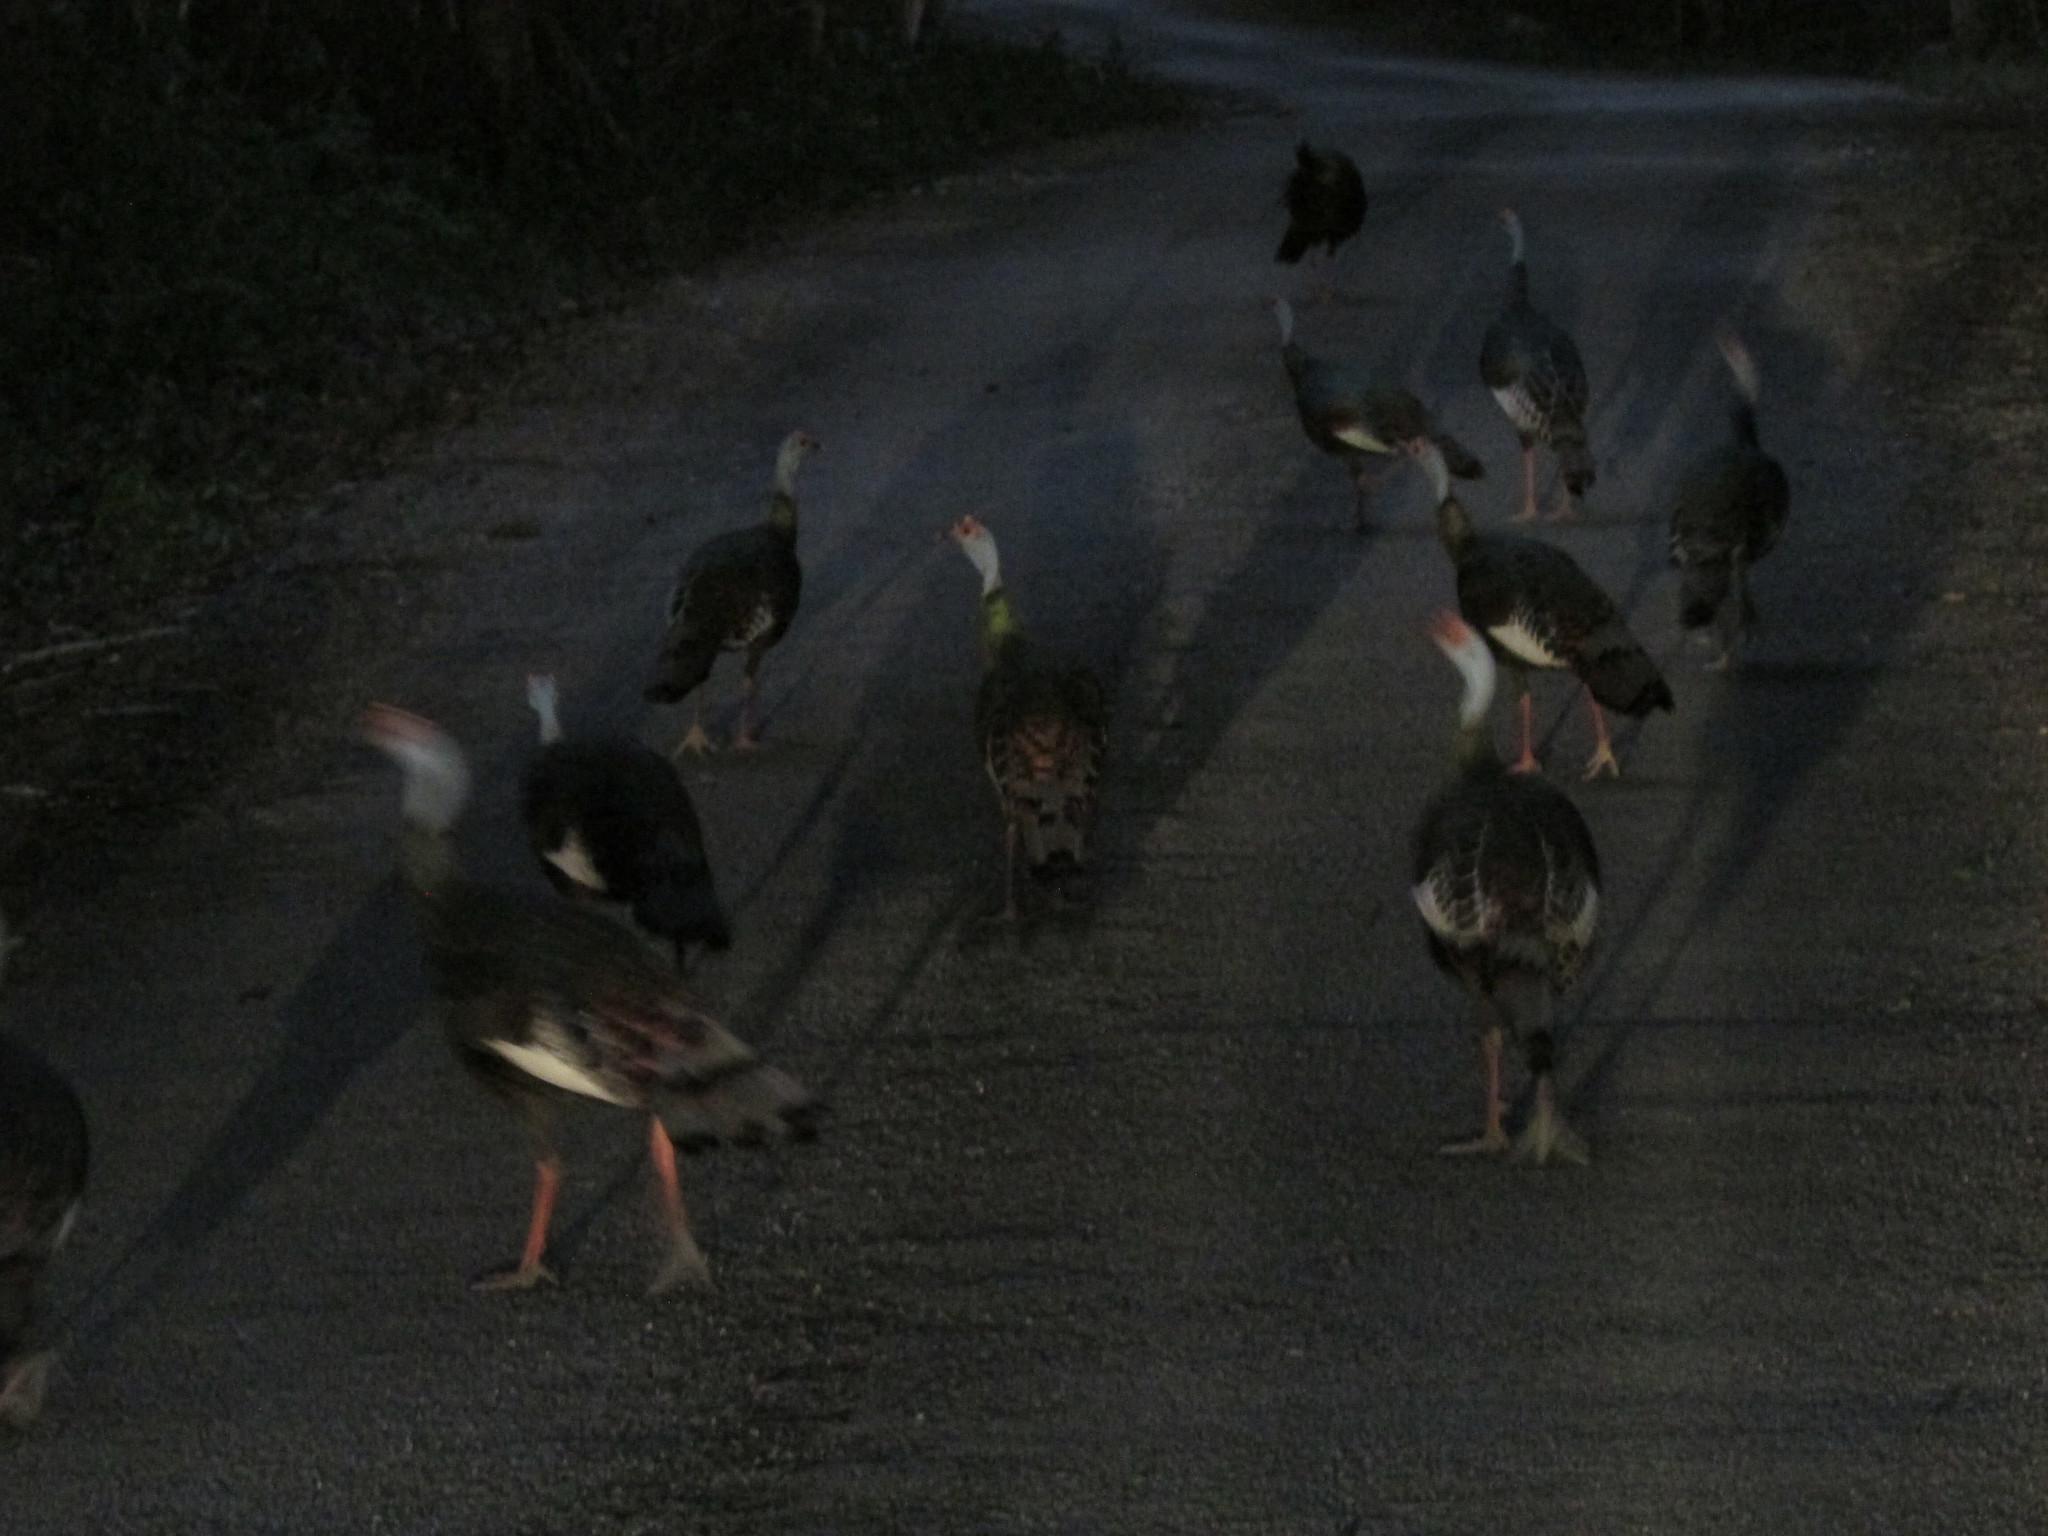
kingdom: Animalia
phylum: Chordata
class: Aves
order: Galliformes
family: Phasianidae
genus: Meleagris
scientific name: Meleagris ocellata
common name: Ocellated turkey
